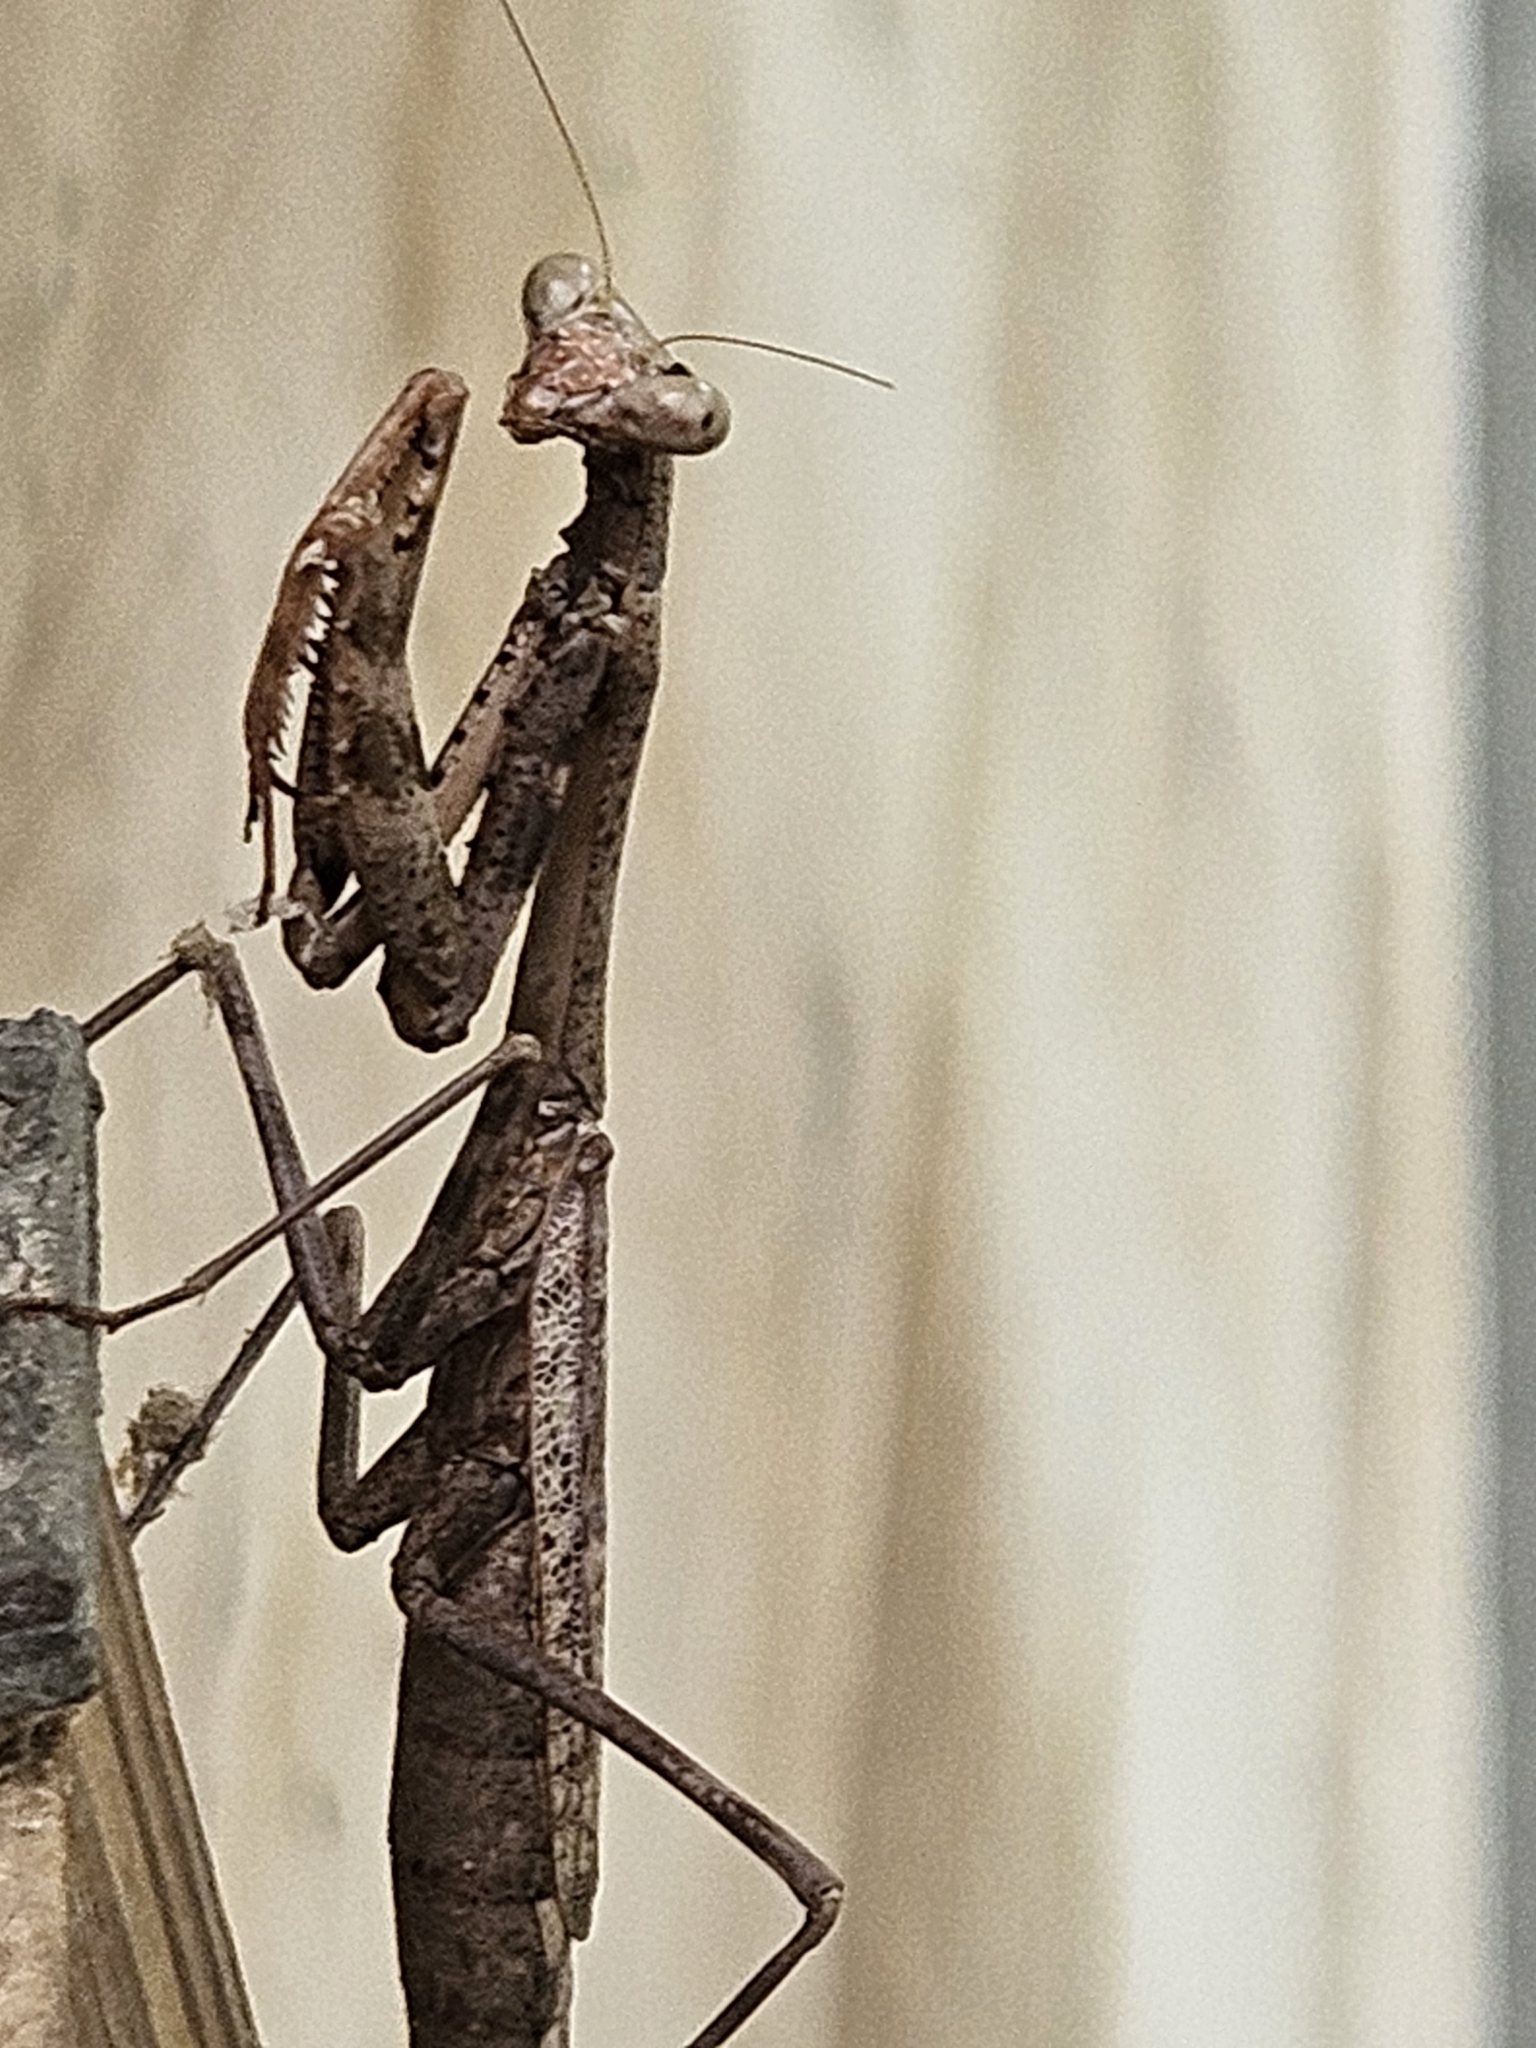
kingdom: Animalia
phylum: Arthropoda
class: Insecta
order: Mantodea
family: Mantidae
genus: Stagmomantis
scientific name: Stagmomantis carolina
